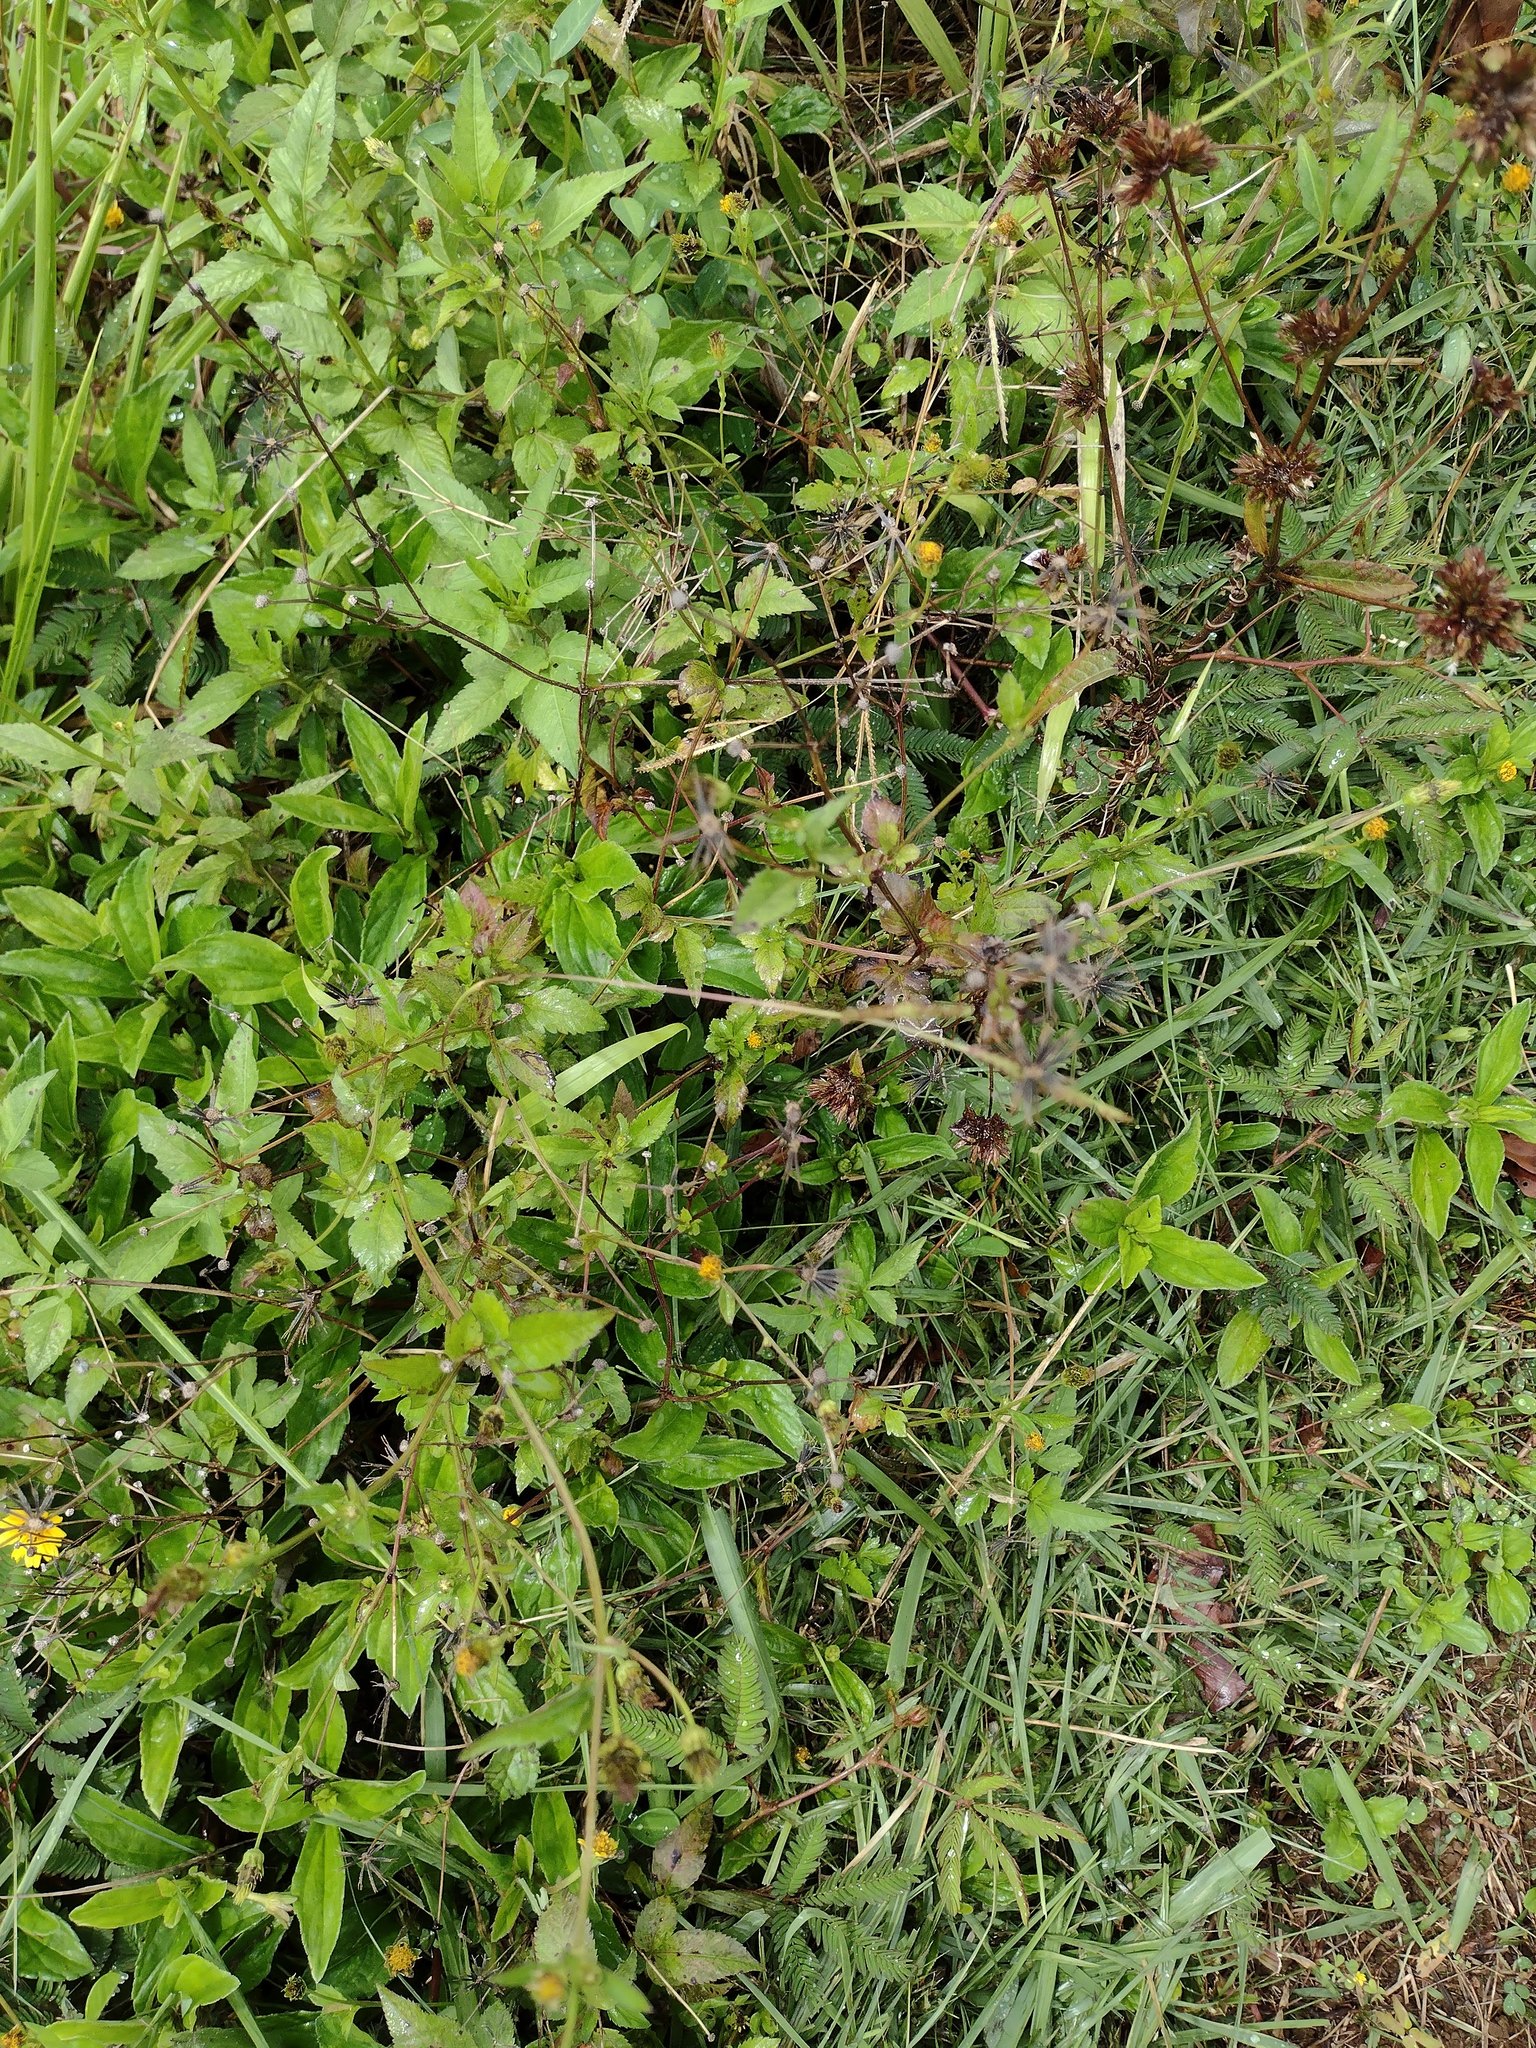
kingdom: Plantae
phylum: Tracheophyta
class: Magnoliopsida
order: Asterales
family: Asteraceae
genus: Bidens
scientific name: Bidens pilosa
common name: Black-jack
